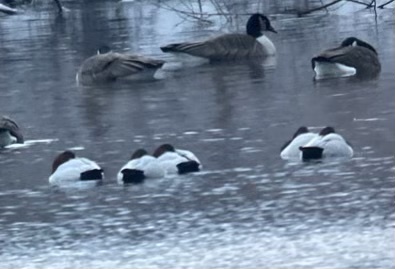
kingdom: Animalia
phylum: Chordata
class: Aves
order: Anseriformes
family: Anatidae
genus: Aythya
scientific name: Aythya valisineria
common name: Canvasback
